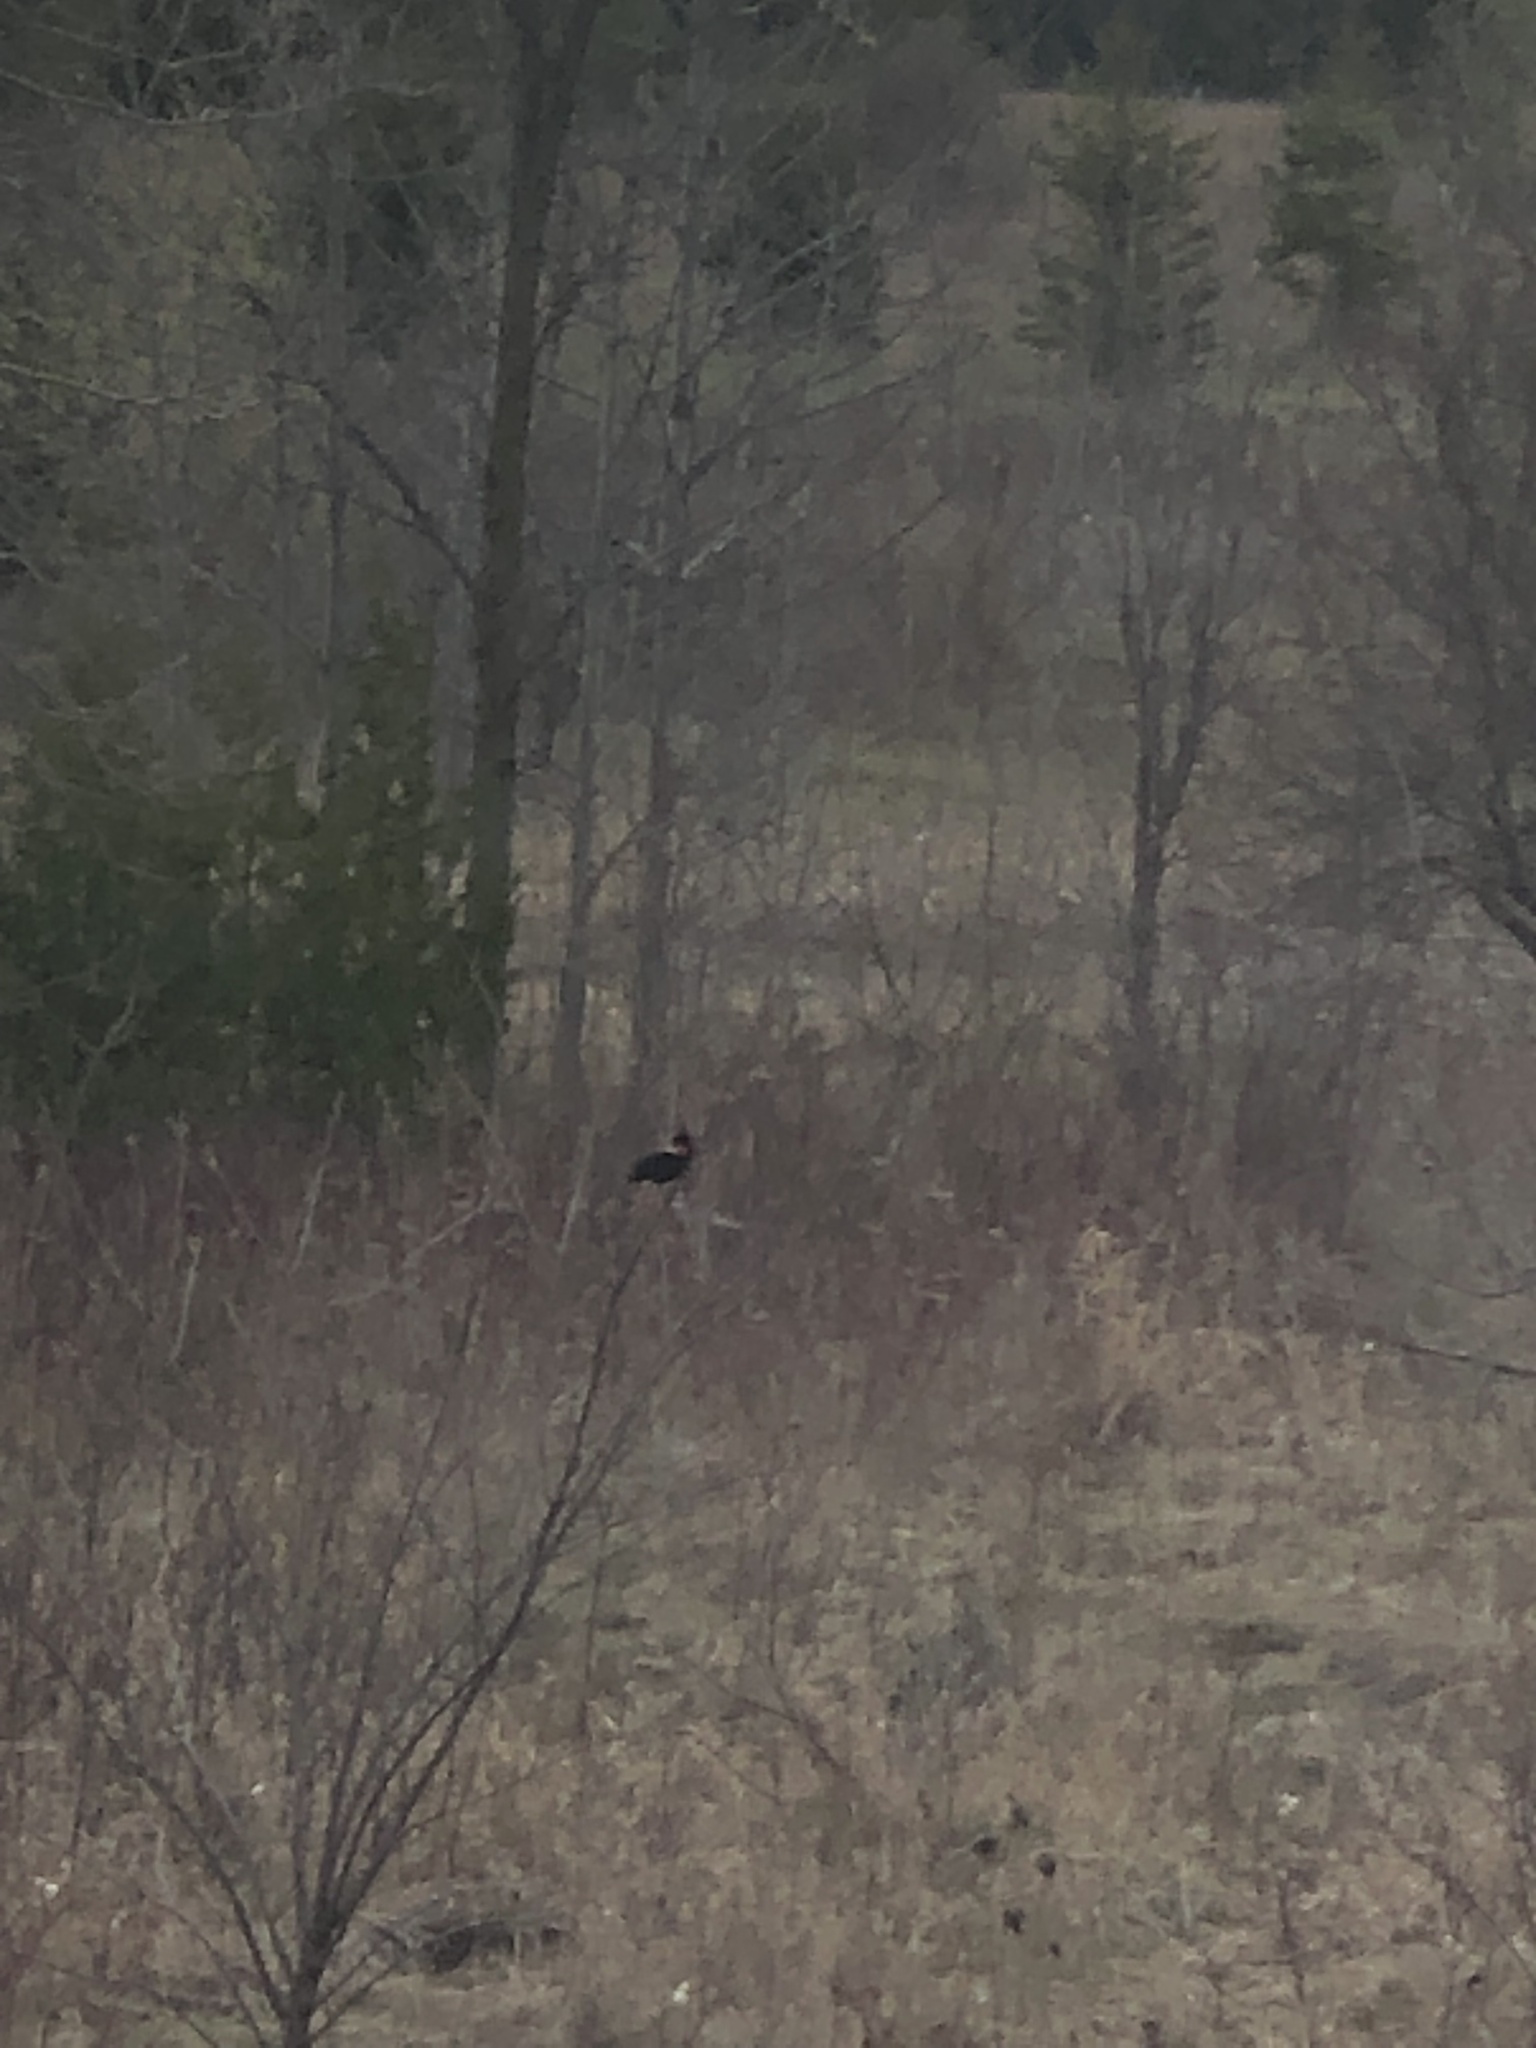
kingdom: Animalia
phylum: Chordata
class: Aves
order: Passeriformes
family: Icteridae
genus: Agelaius
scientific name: Agelaius phoeniceus
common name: Red-winged blackbird
